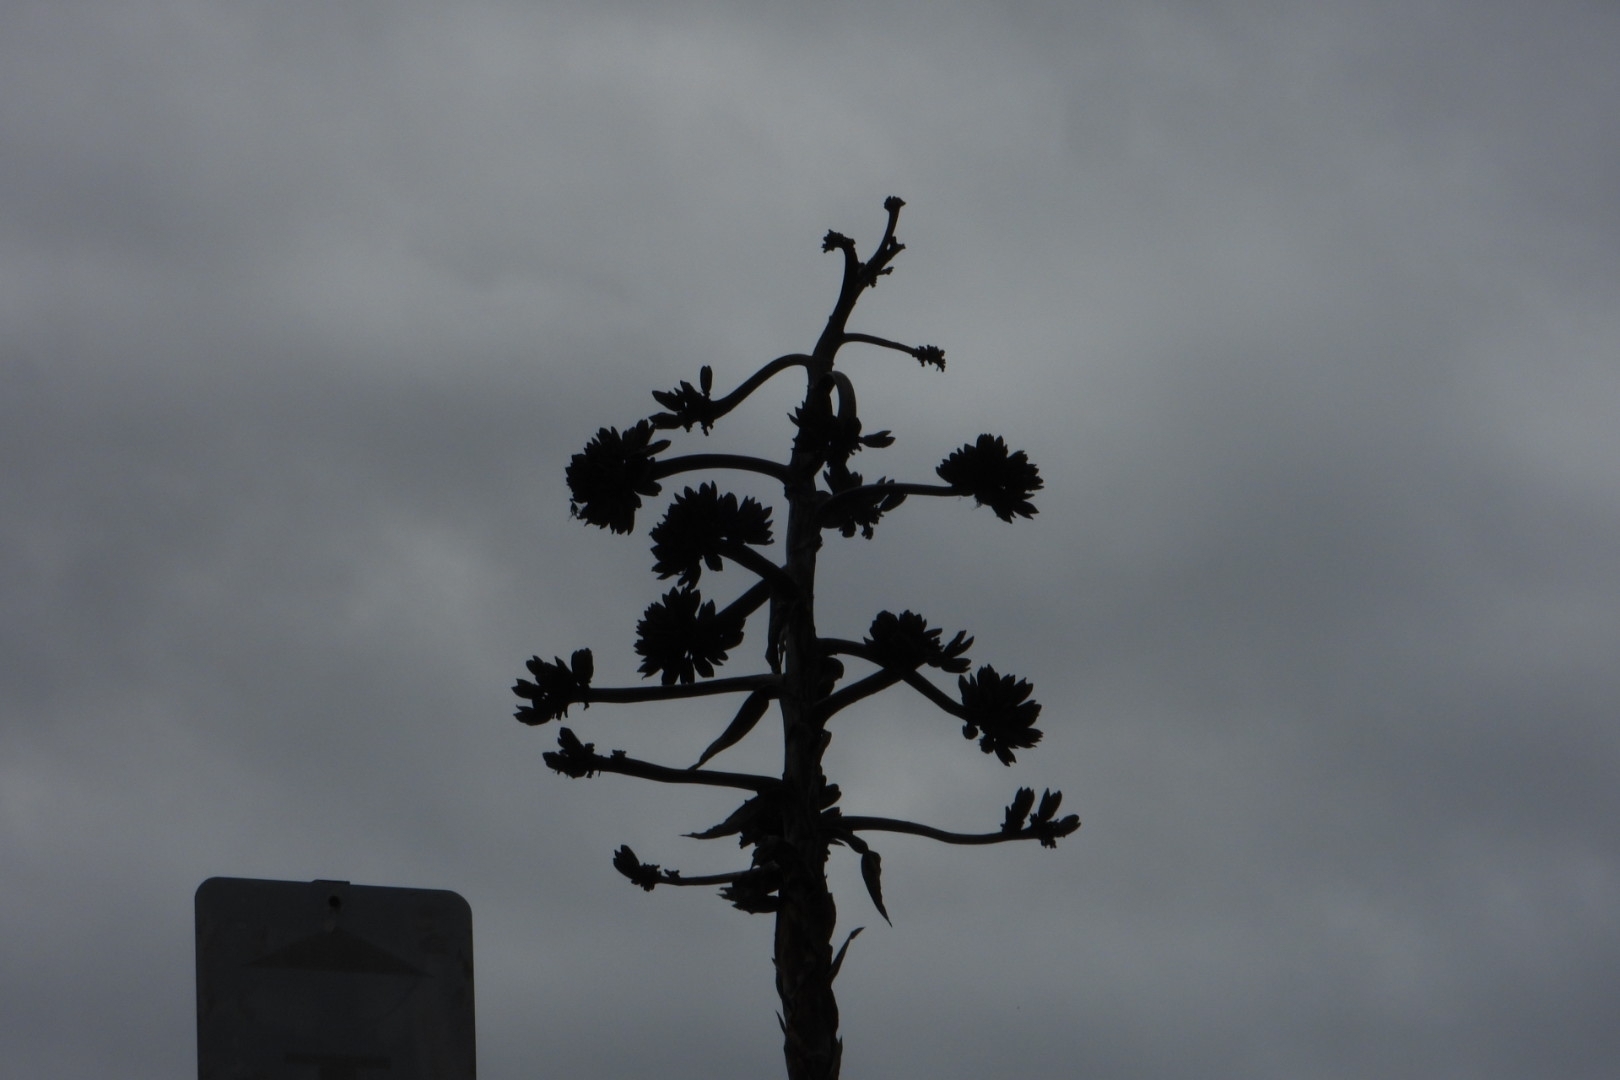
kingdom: Plantae
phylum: Tracheophyta
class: Liliopsida
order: Asparagales
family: Asparagaceae
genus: Agave
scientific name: Agave shawii
